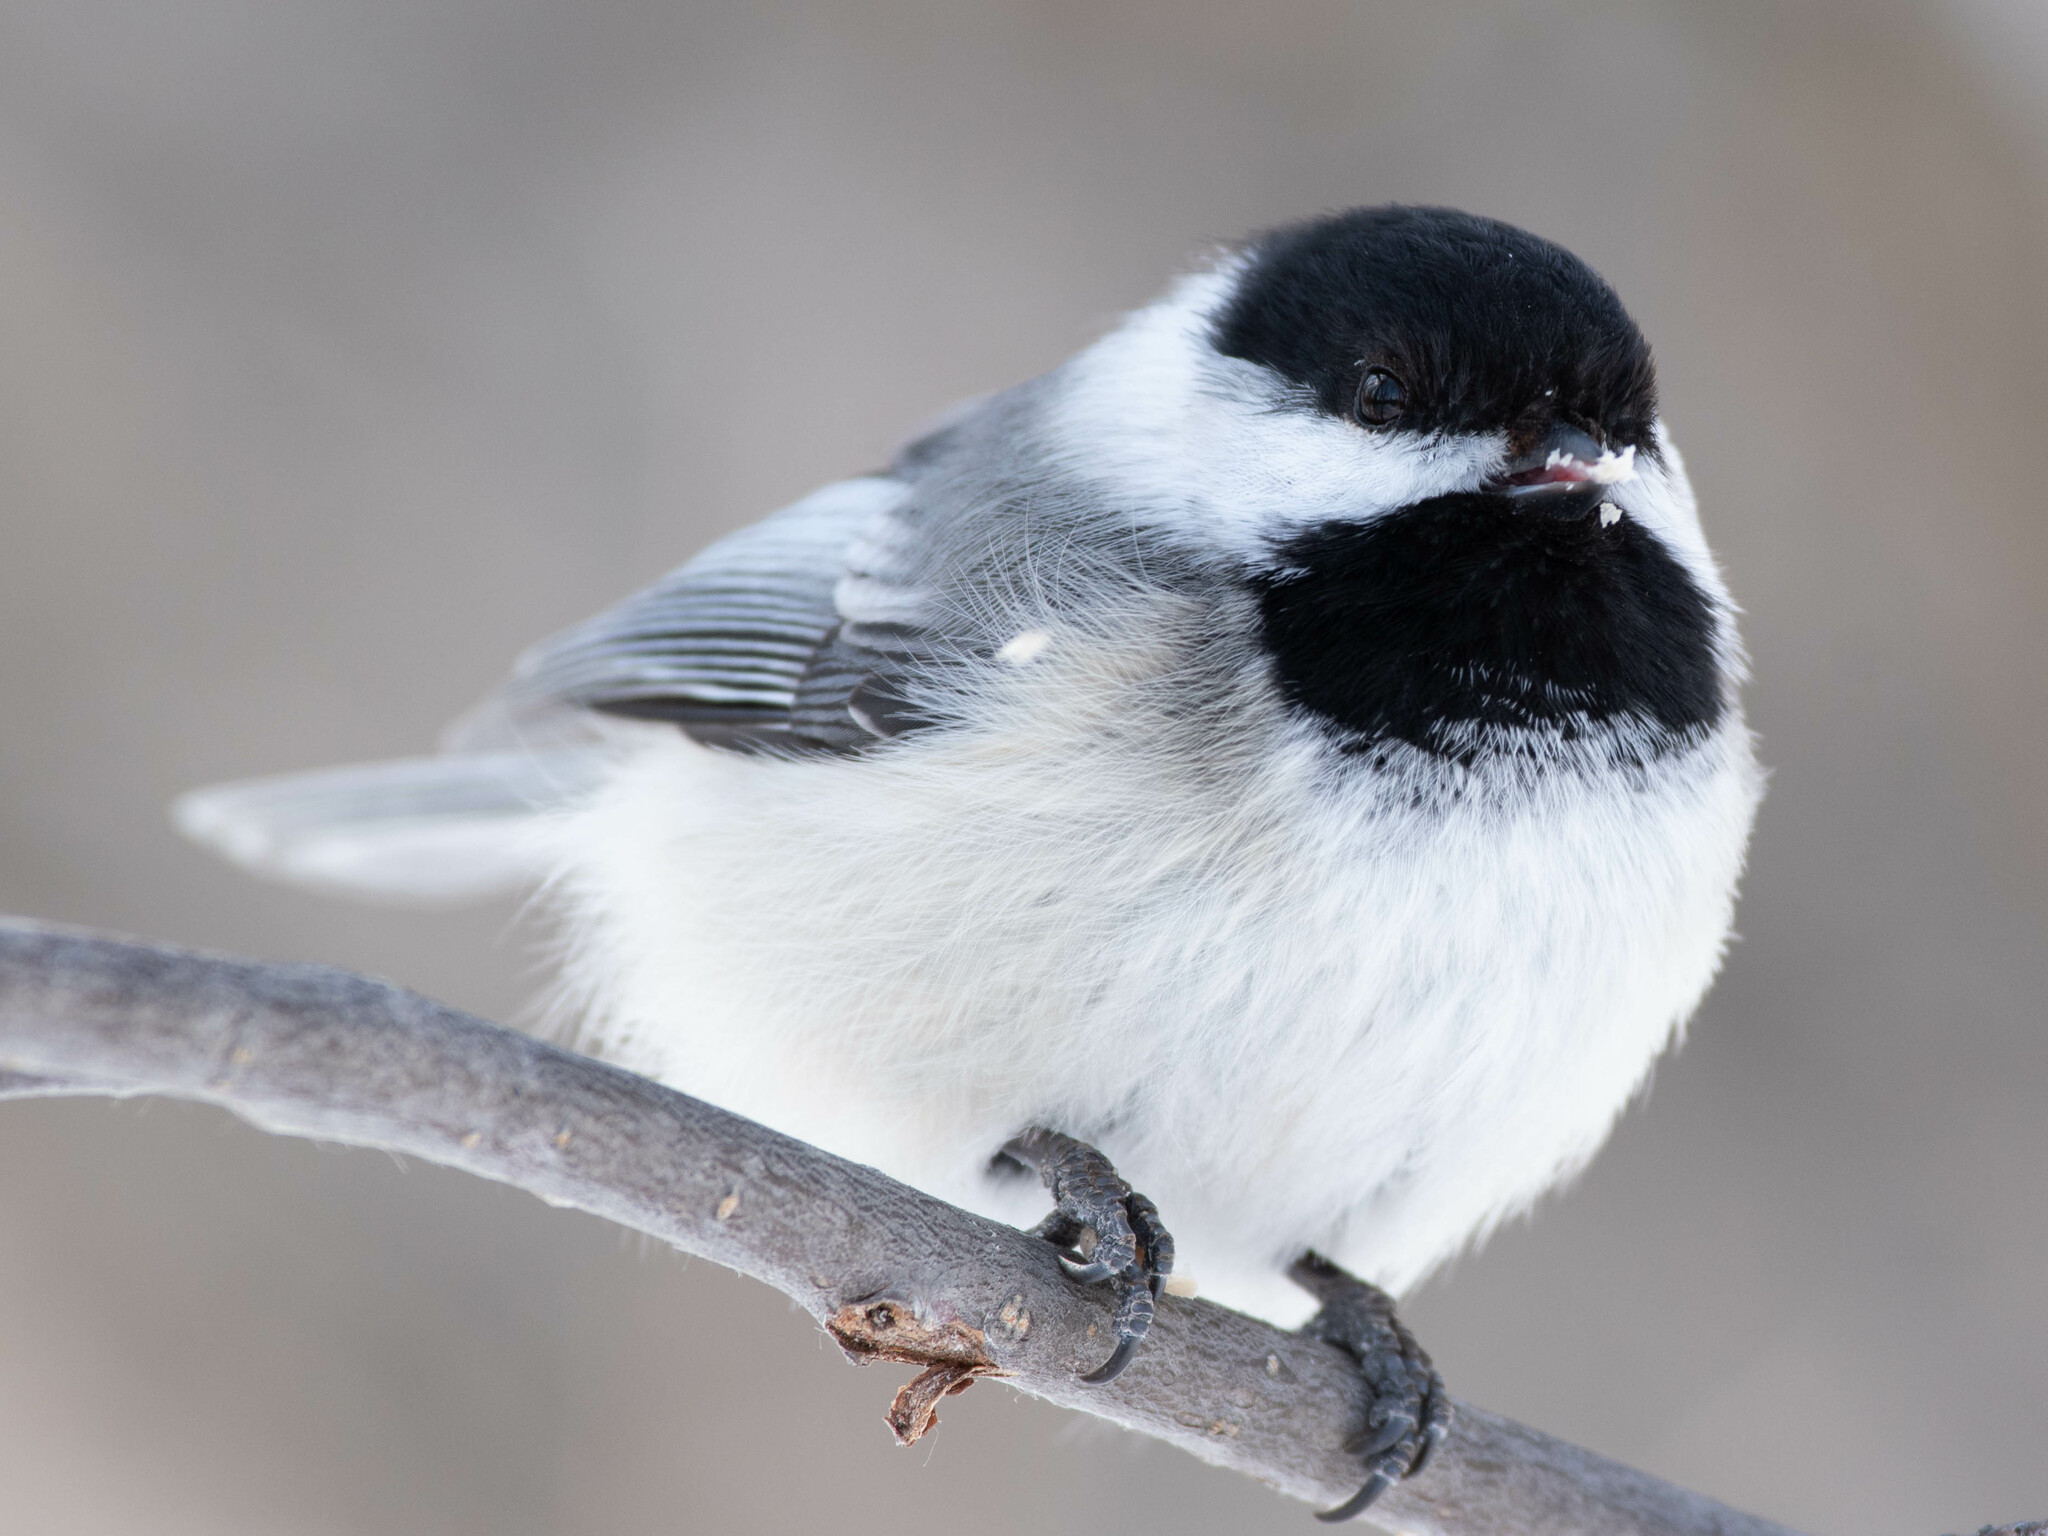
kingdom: Animalia
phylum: Chordata
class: Aves
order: Passeriformes
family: Paridae
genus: Poecile
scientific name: Poecile atricapillus
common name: Black-capped chickadee
